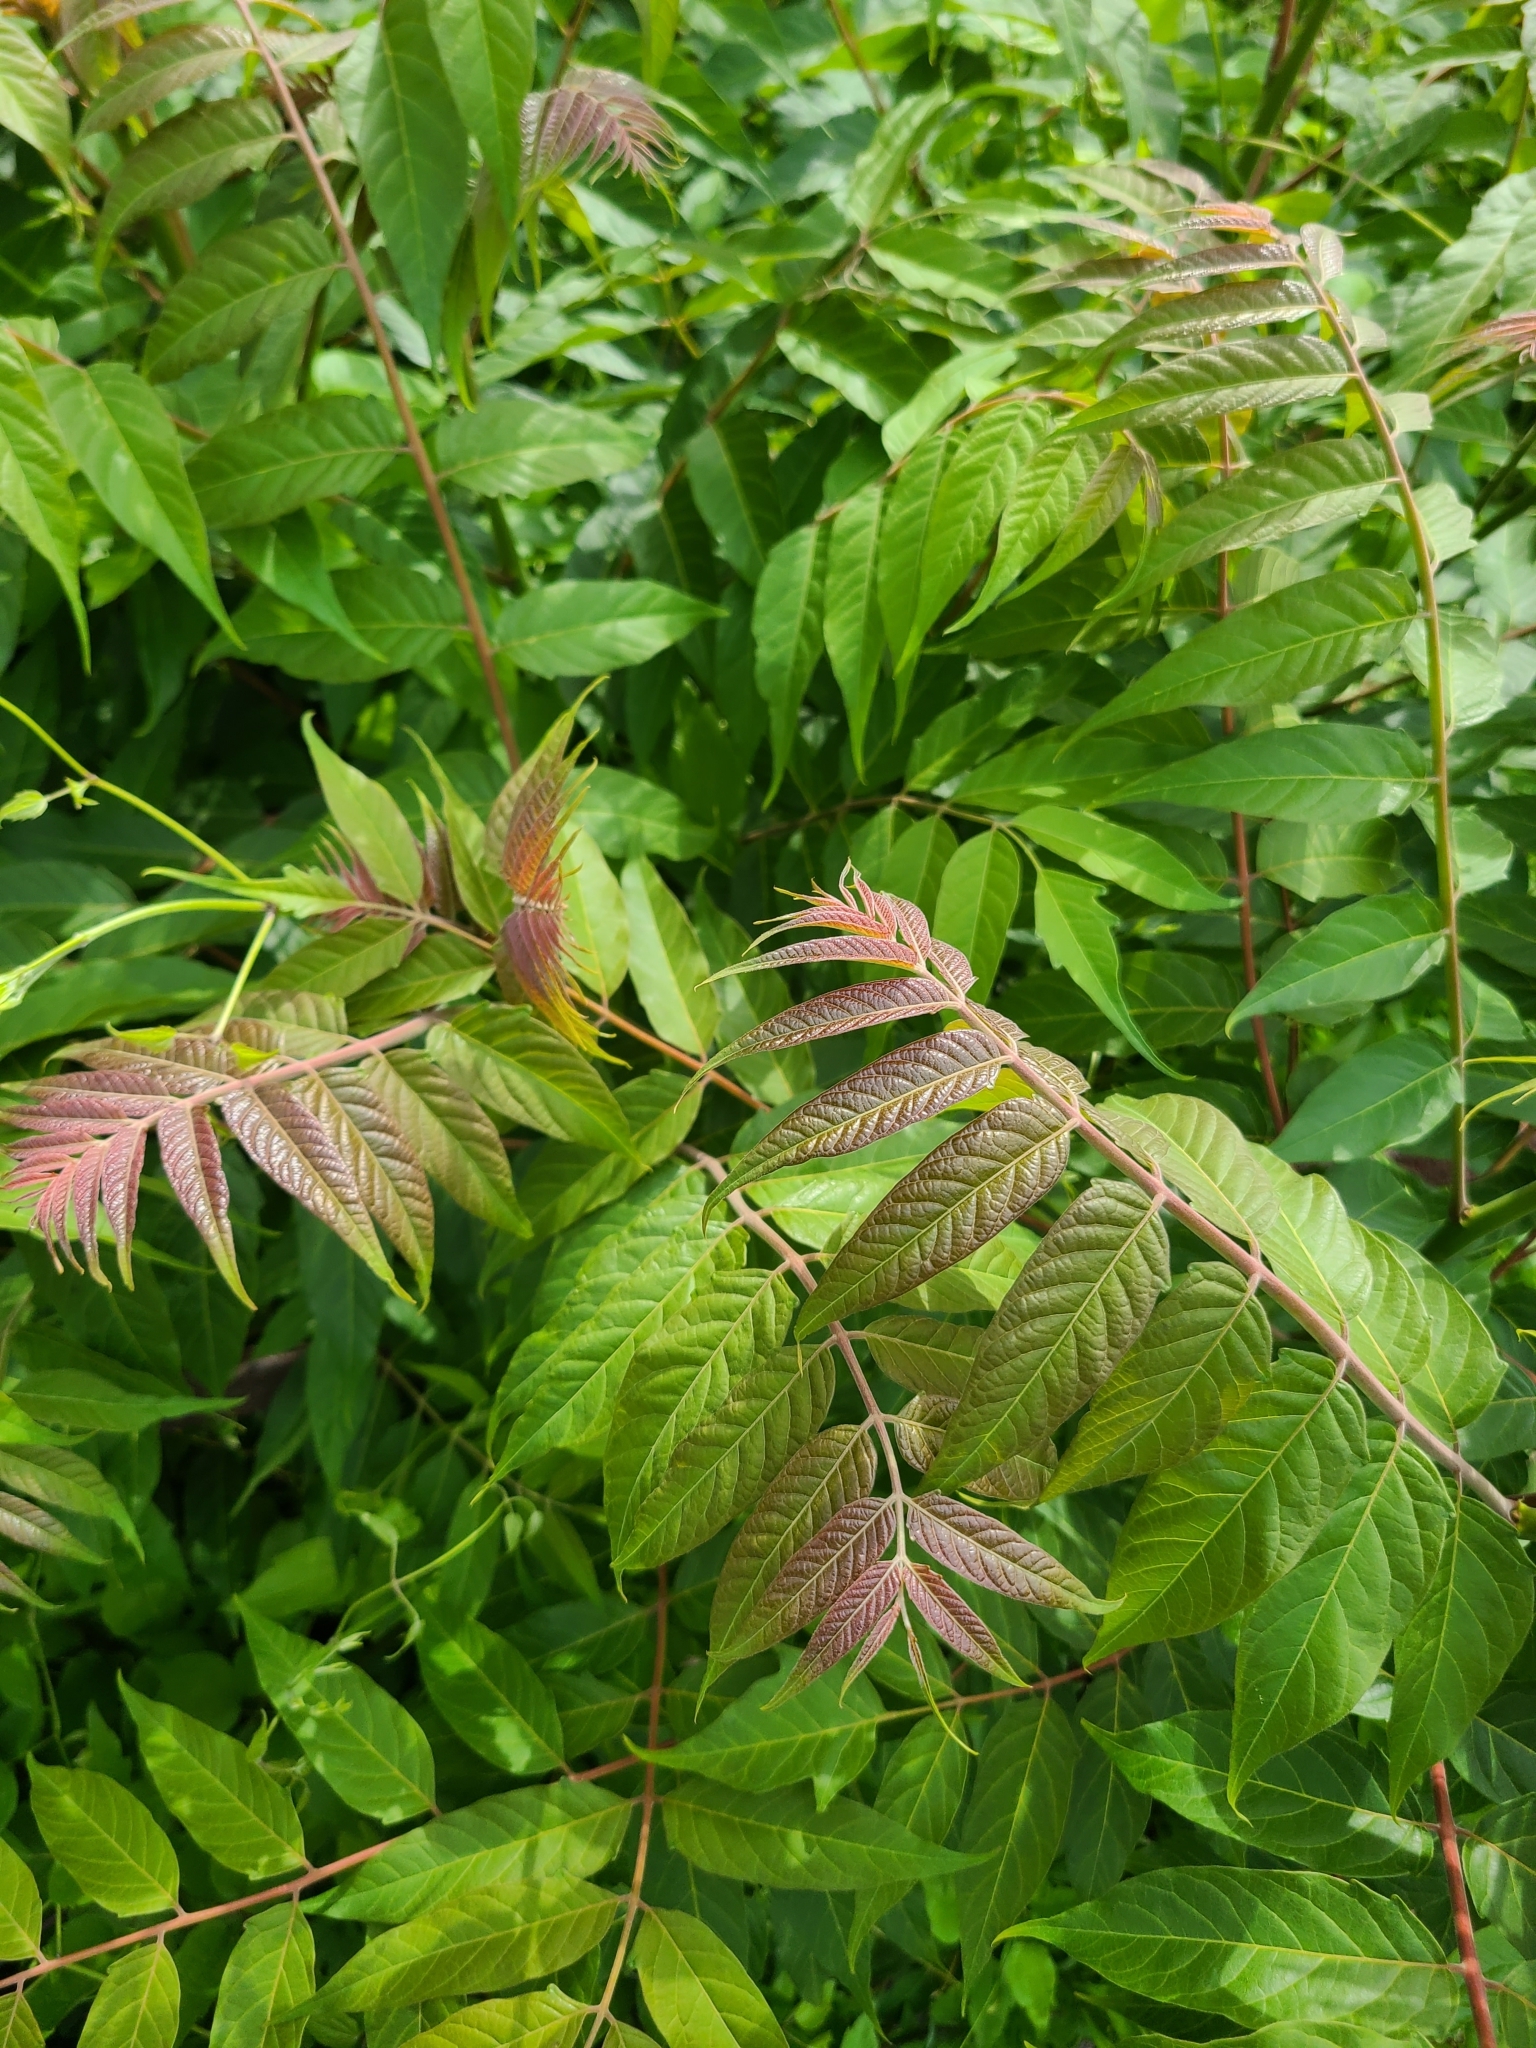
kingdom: Plantae
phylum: Tracheophyta
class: Magnoliopsida
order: Sapindales
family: Simaroubaceae
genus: Ailanthus
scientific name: Ailanthus altissima
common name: Tree-of-heaven
